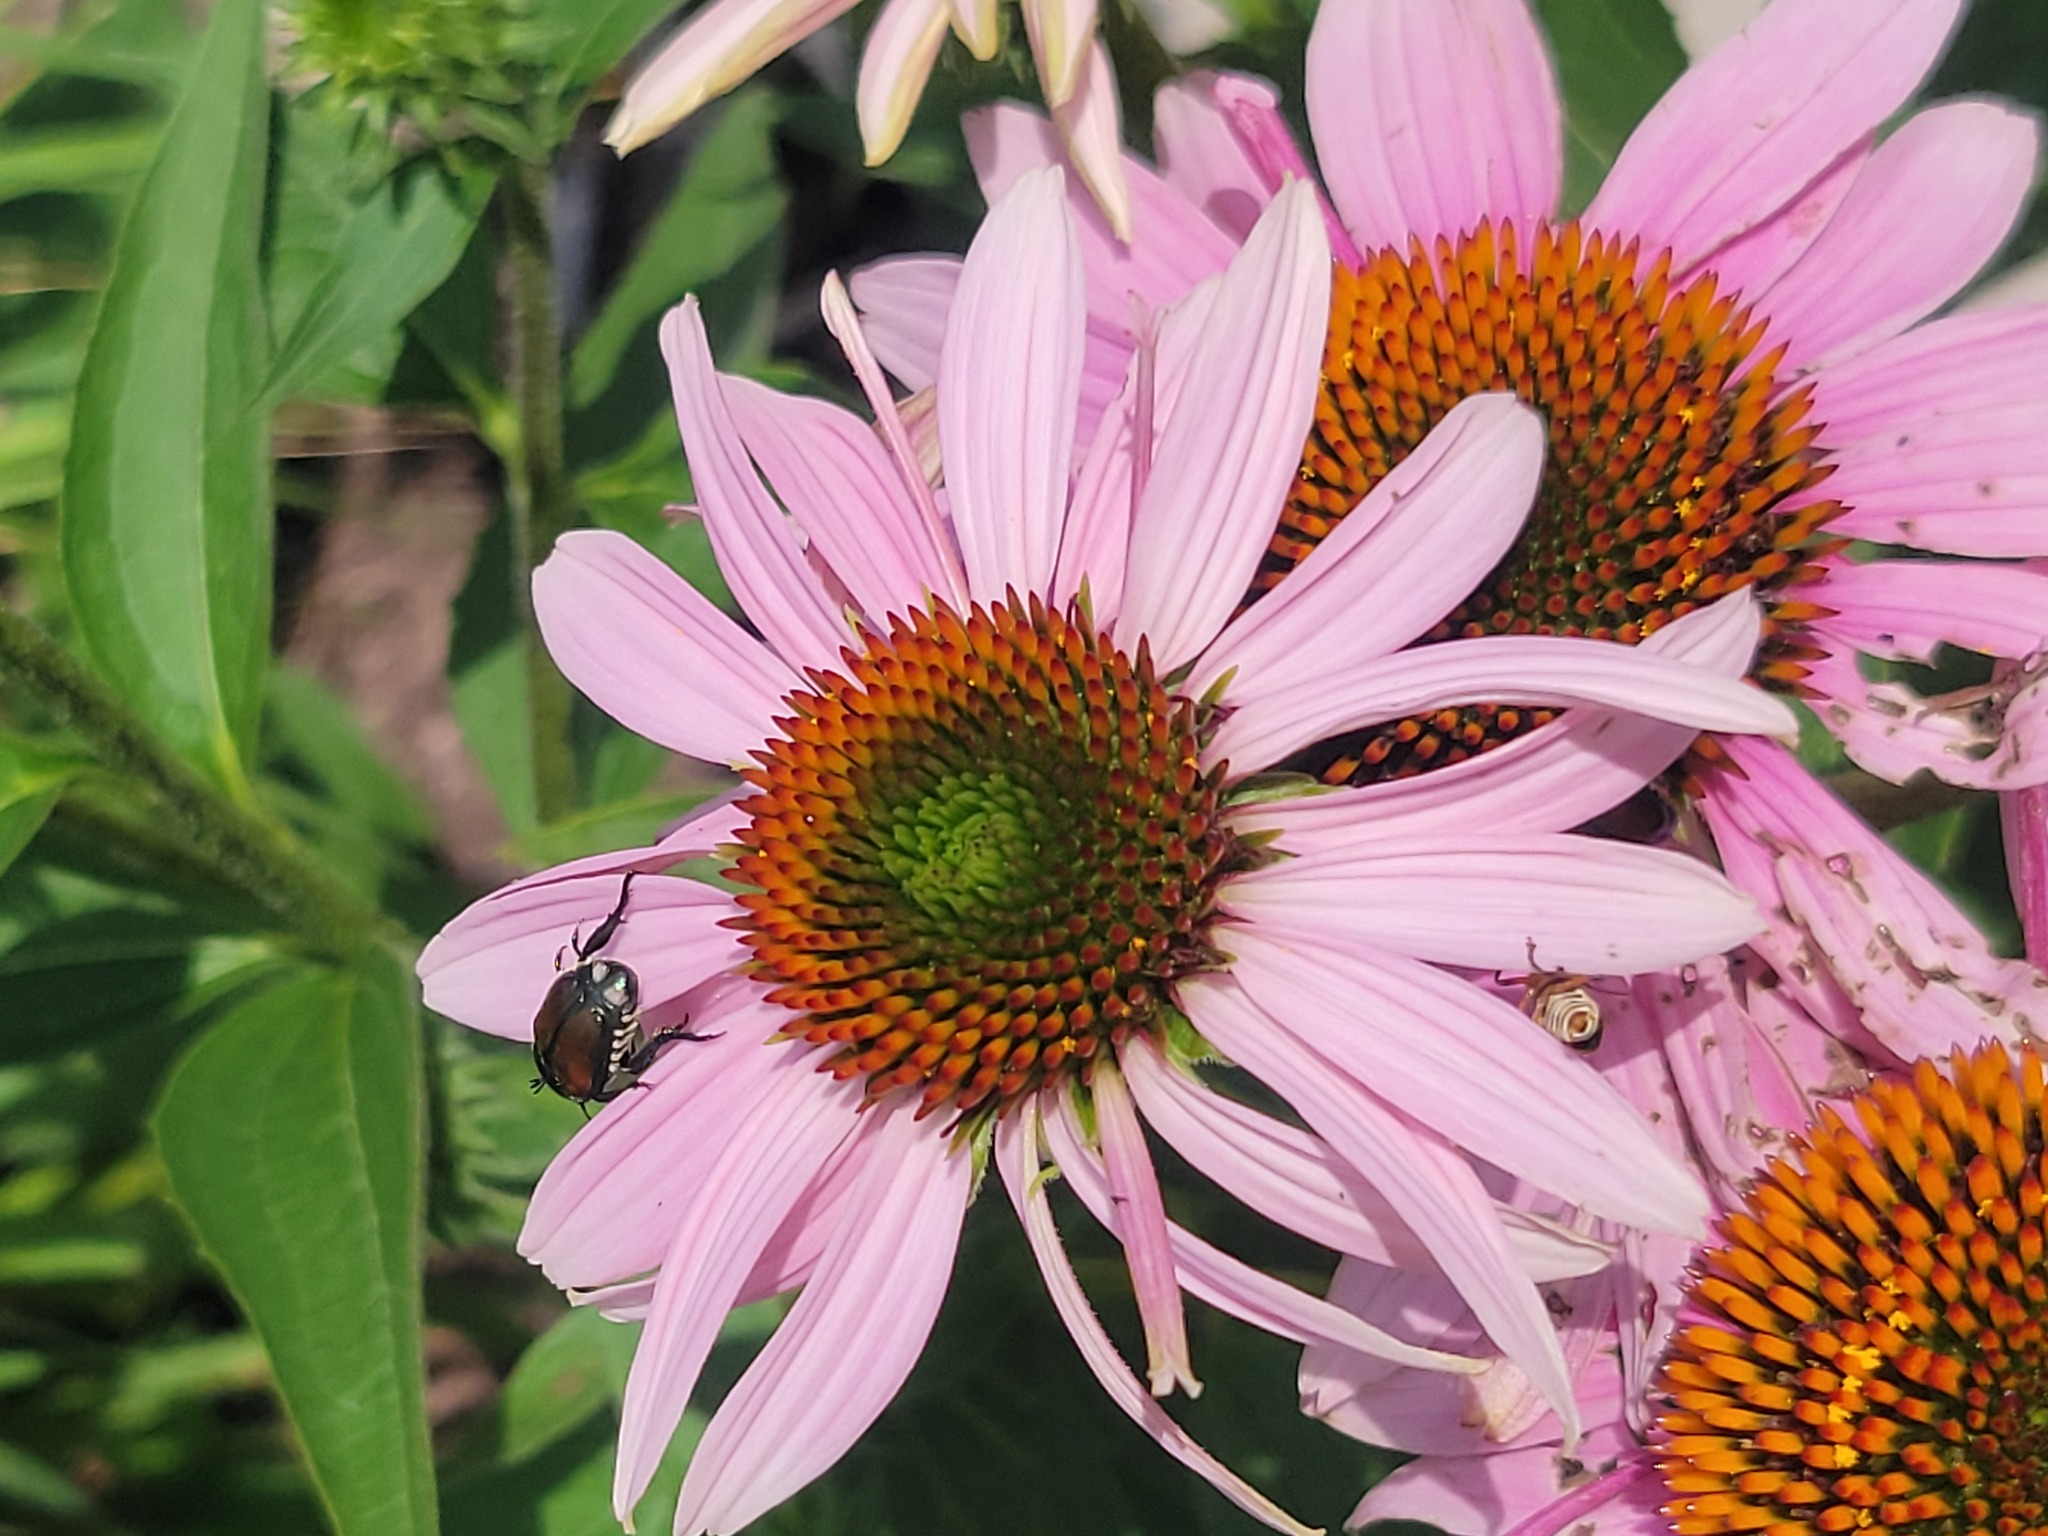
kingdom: Animalia
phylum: Arthropoda
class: Insecta
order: Coleoptera
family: Scarabaeidae
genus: Popillia
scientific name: Popillia japonica
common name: Japanese beetle
